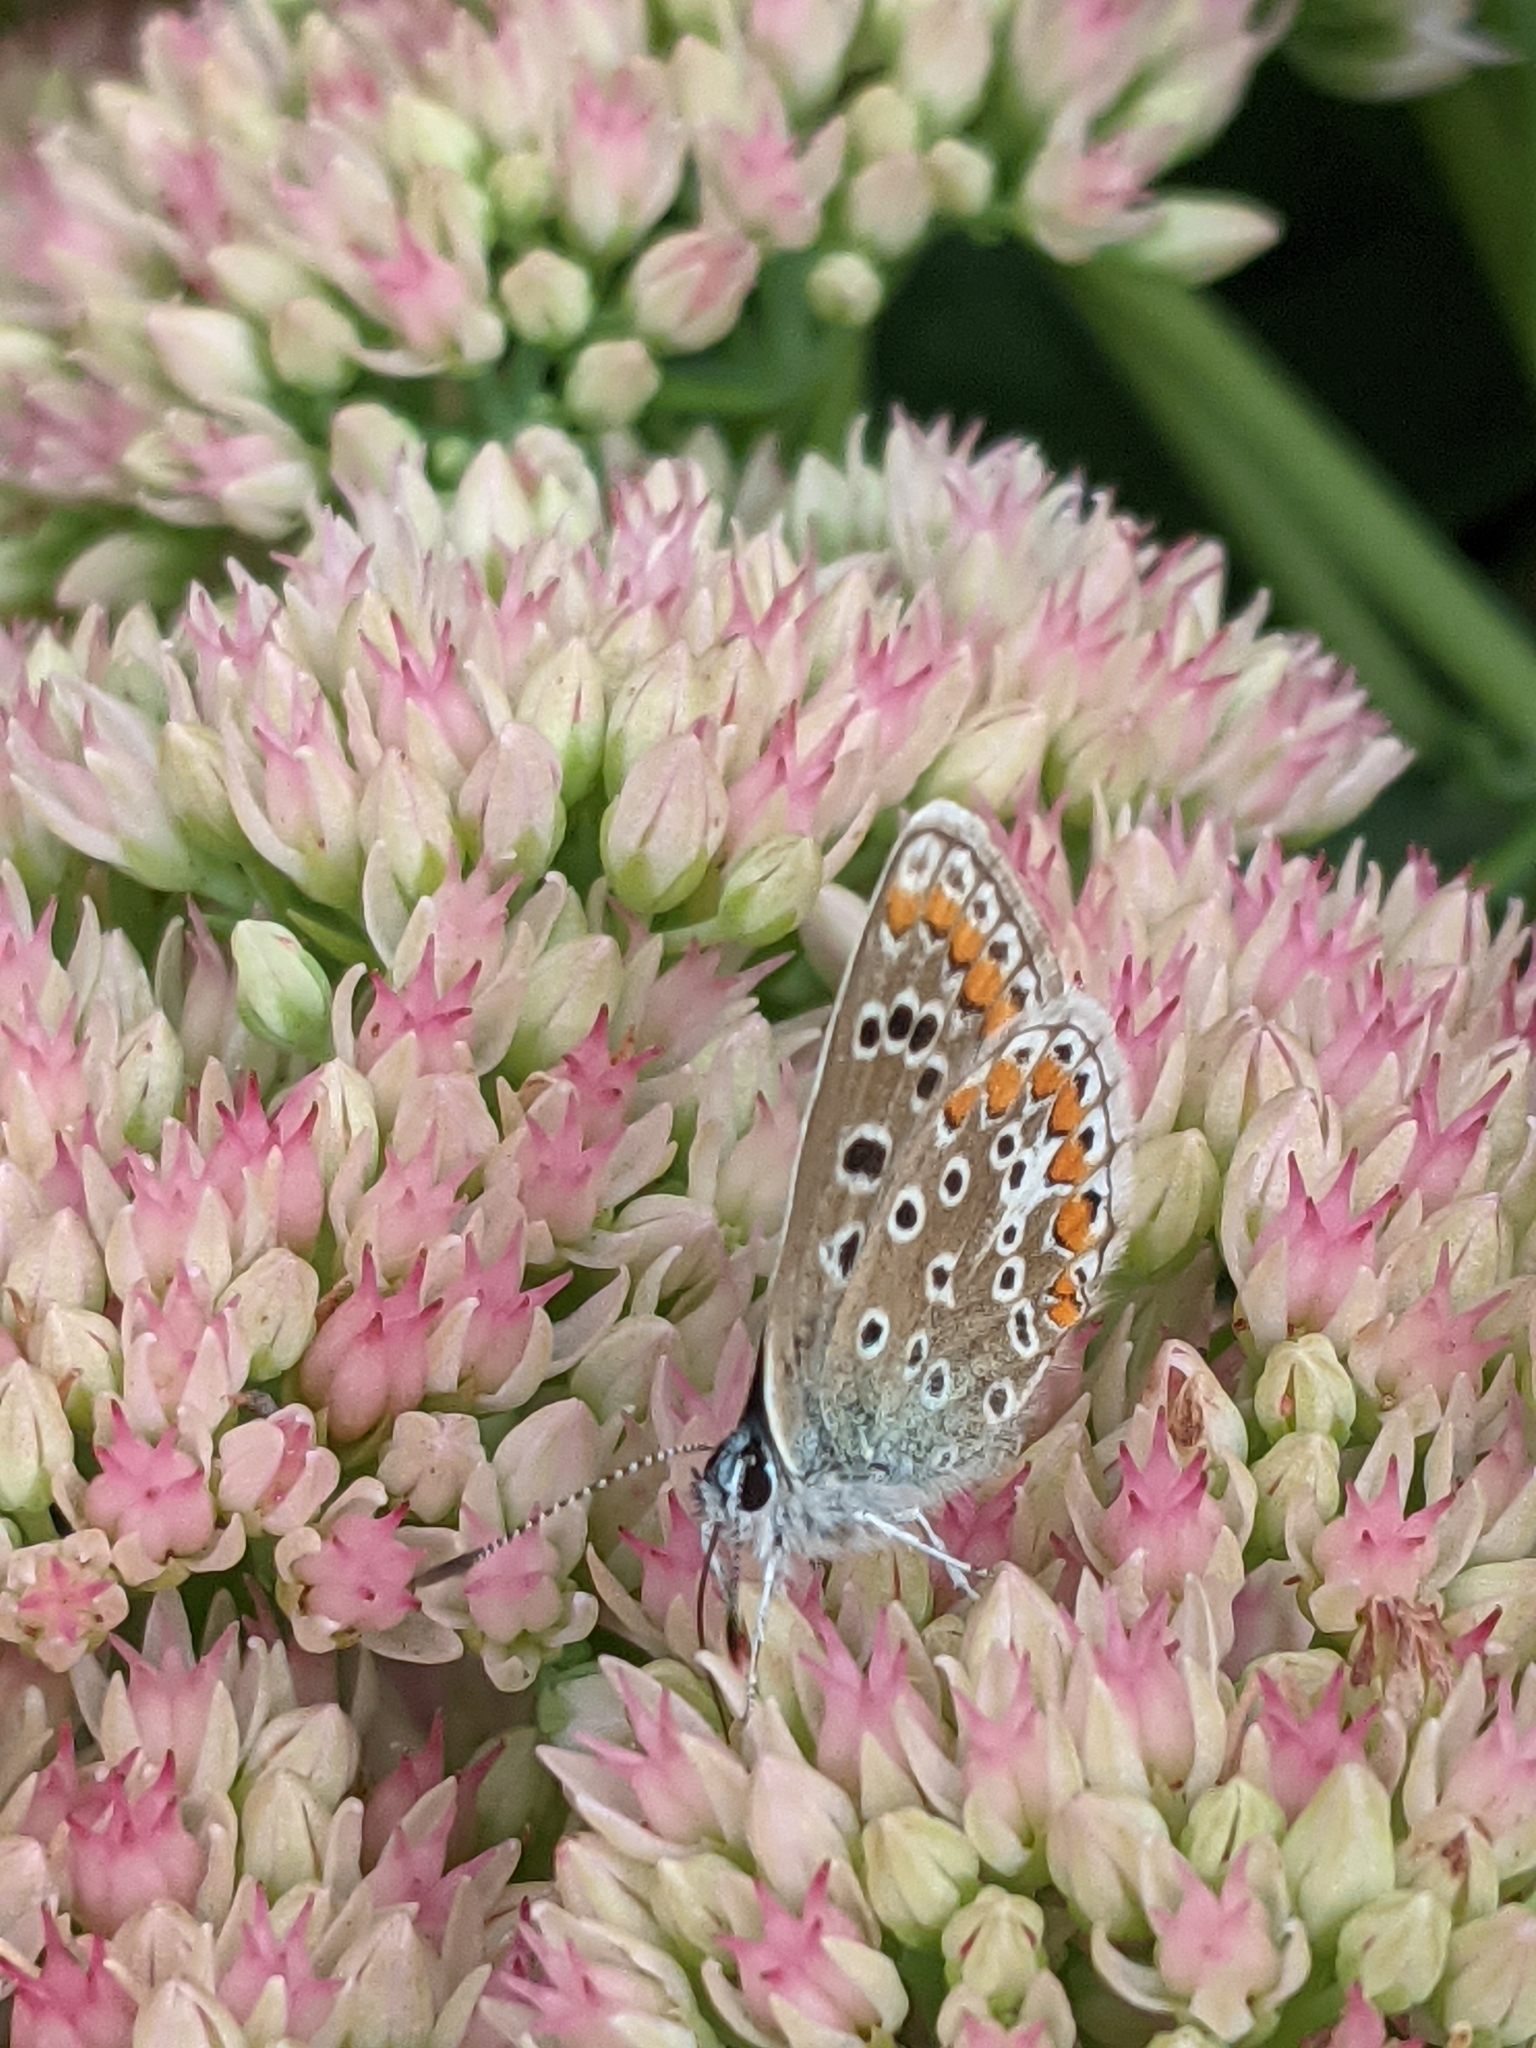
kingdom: Animalia
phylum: Arthropoda
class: Insecta
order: Lepidoptera
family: Lycaenidae
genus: Polyommatus
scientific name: Polyommatus icarus
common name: Common blue
